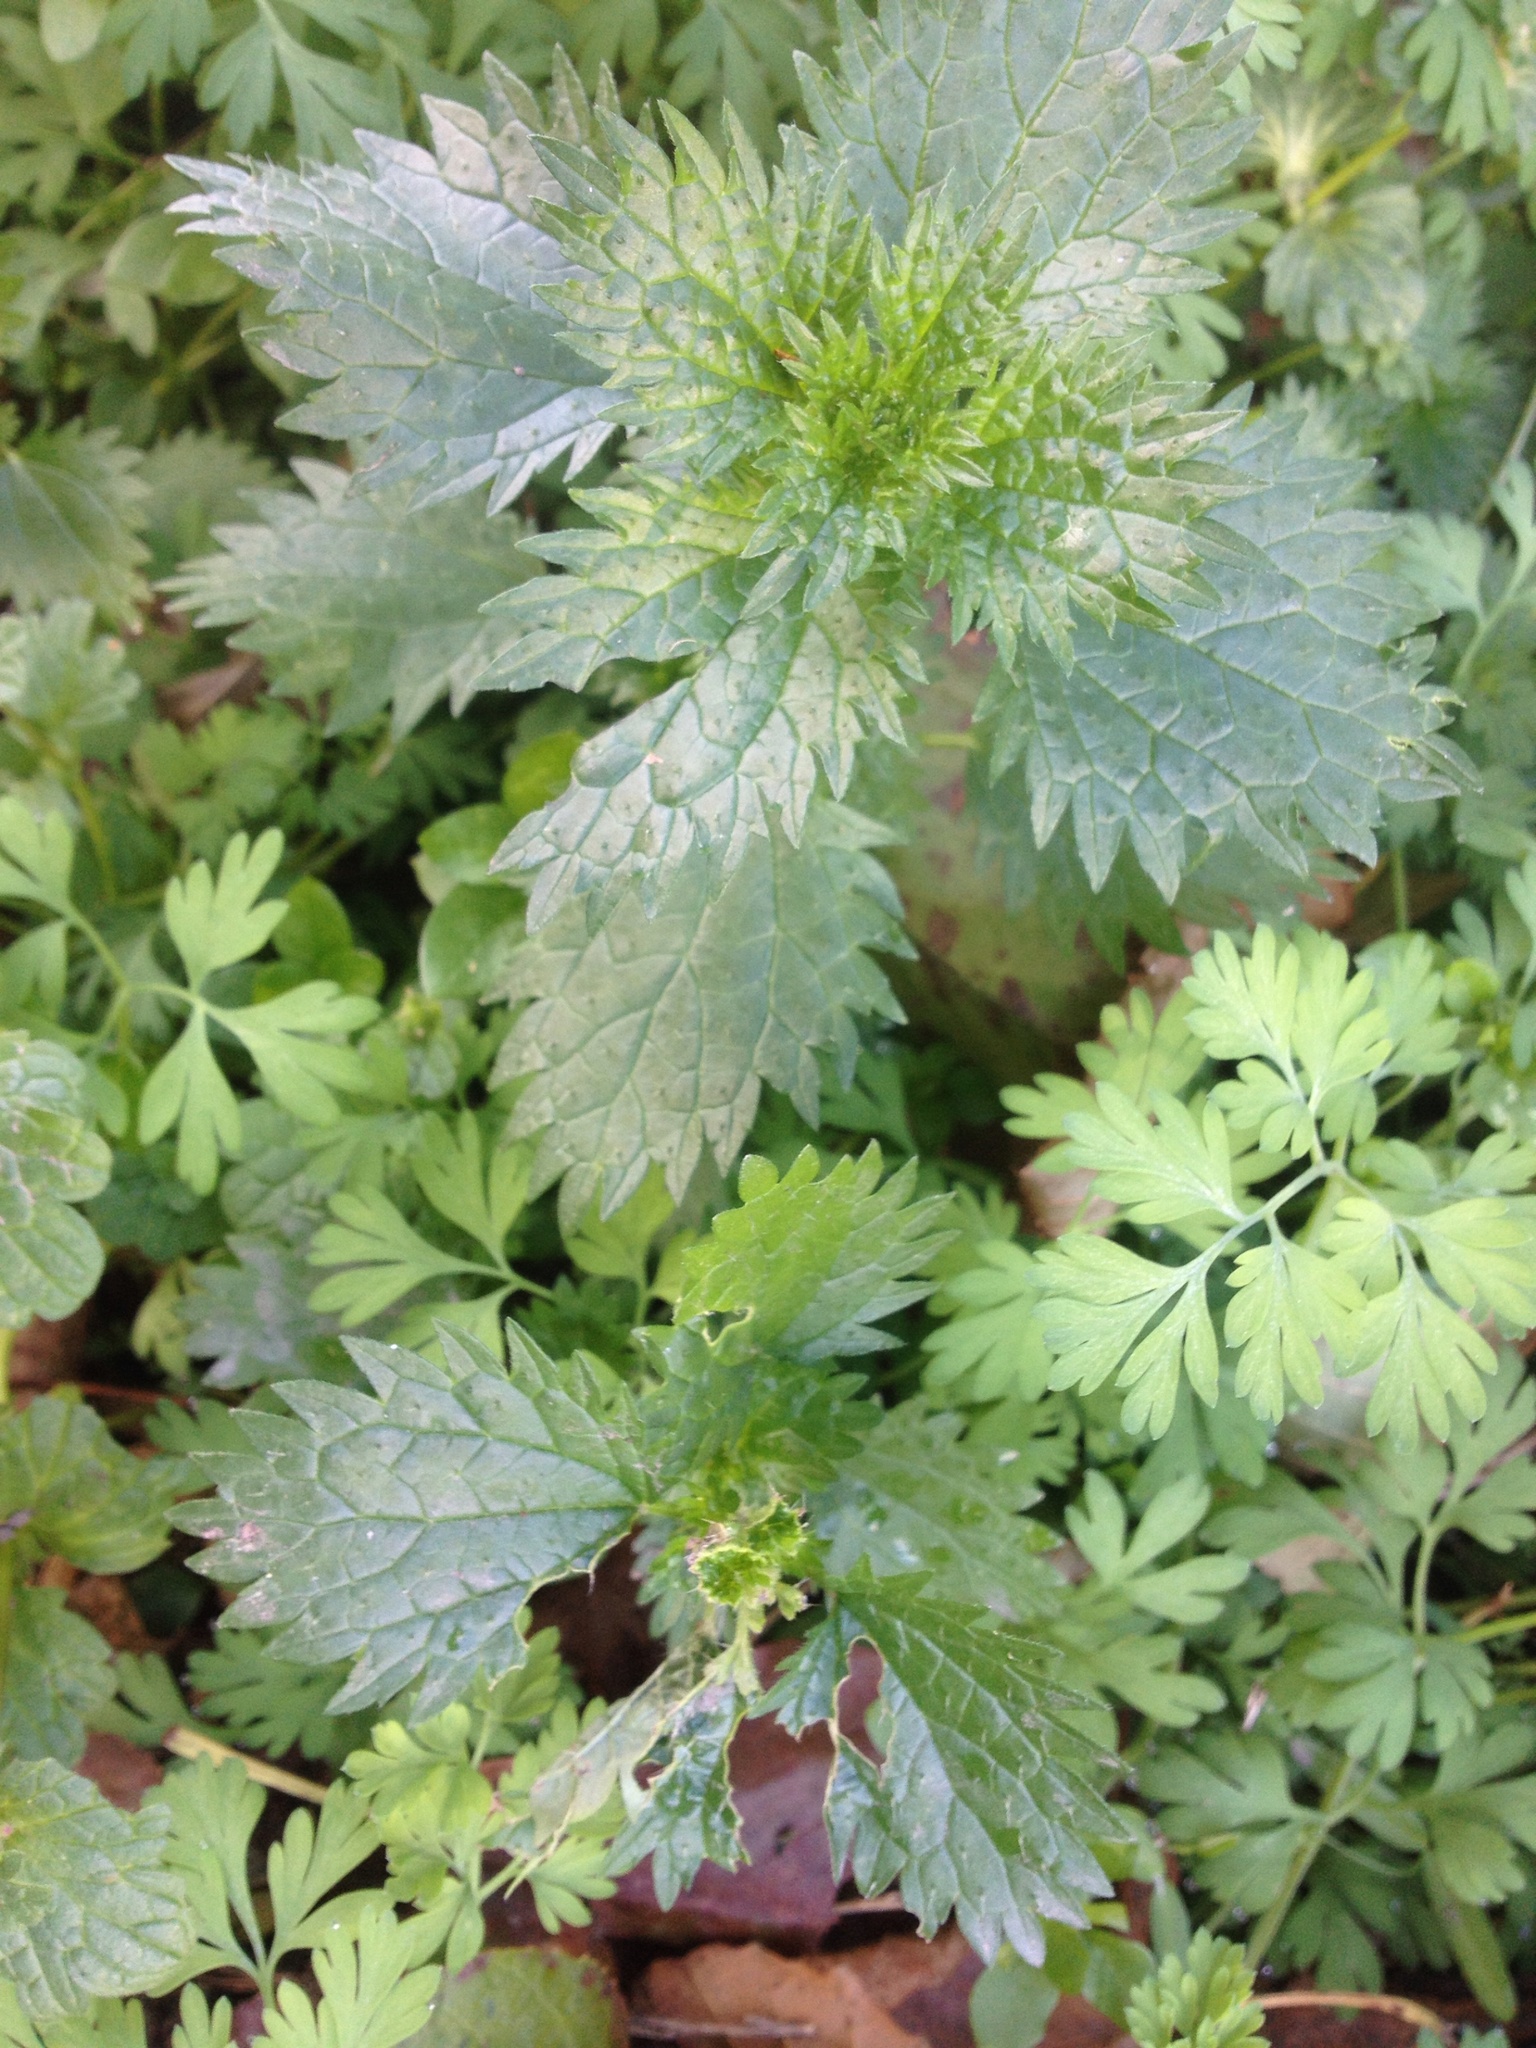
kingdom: Plantae
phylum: Tracheophyta
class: Magnoliopsida
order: Rosales
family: Urticaceae
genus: Urtica
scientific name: Urtica urens
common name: Dwarf nettle
